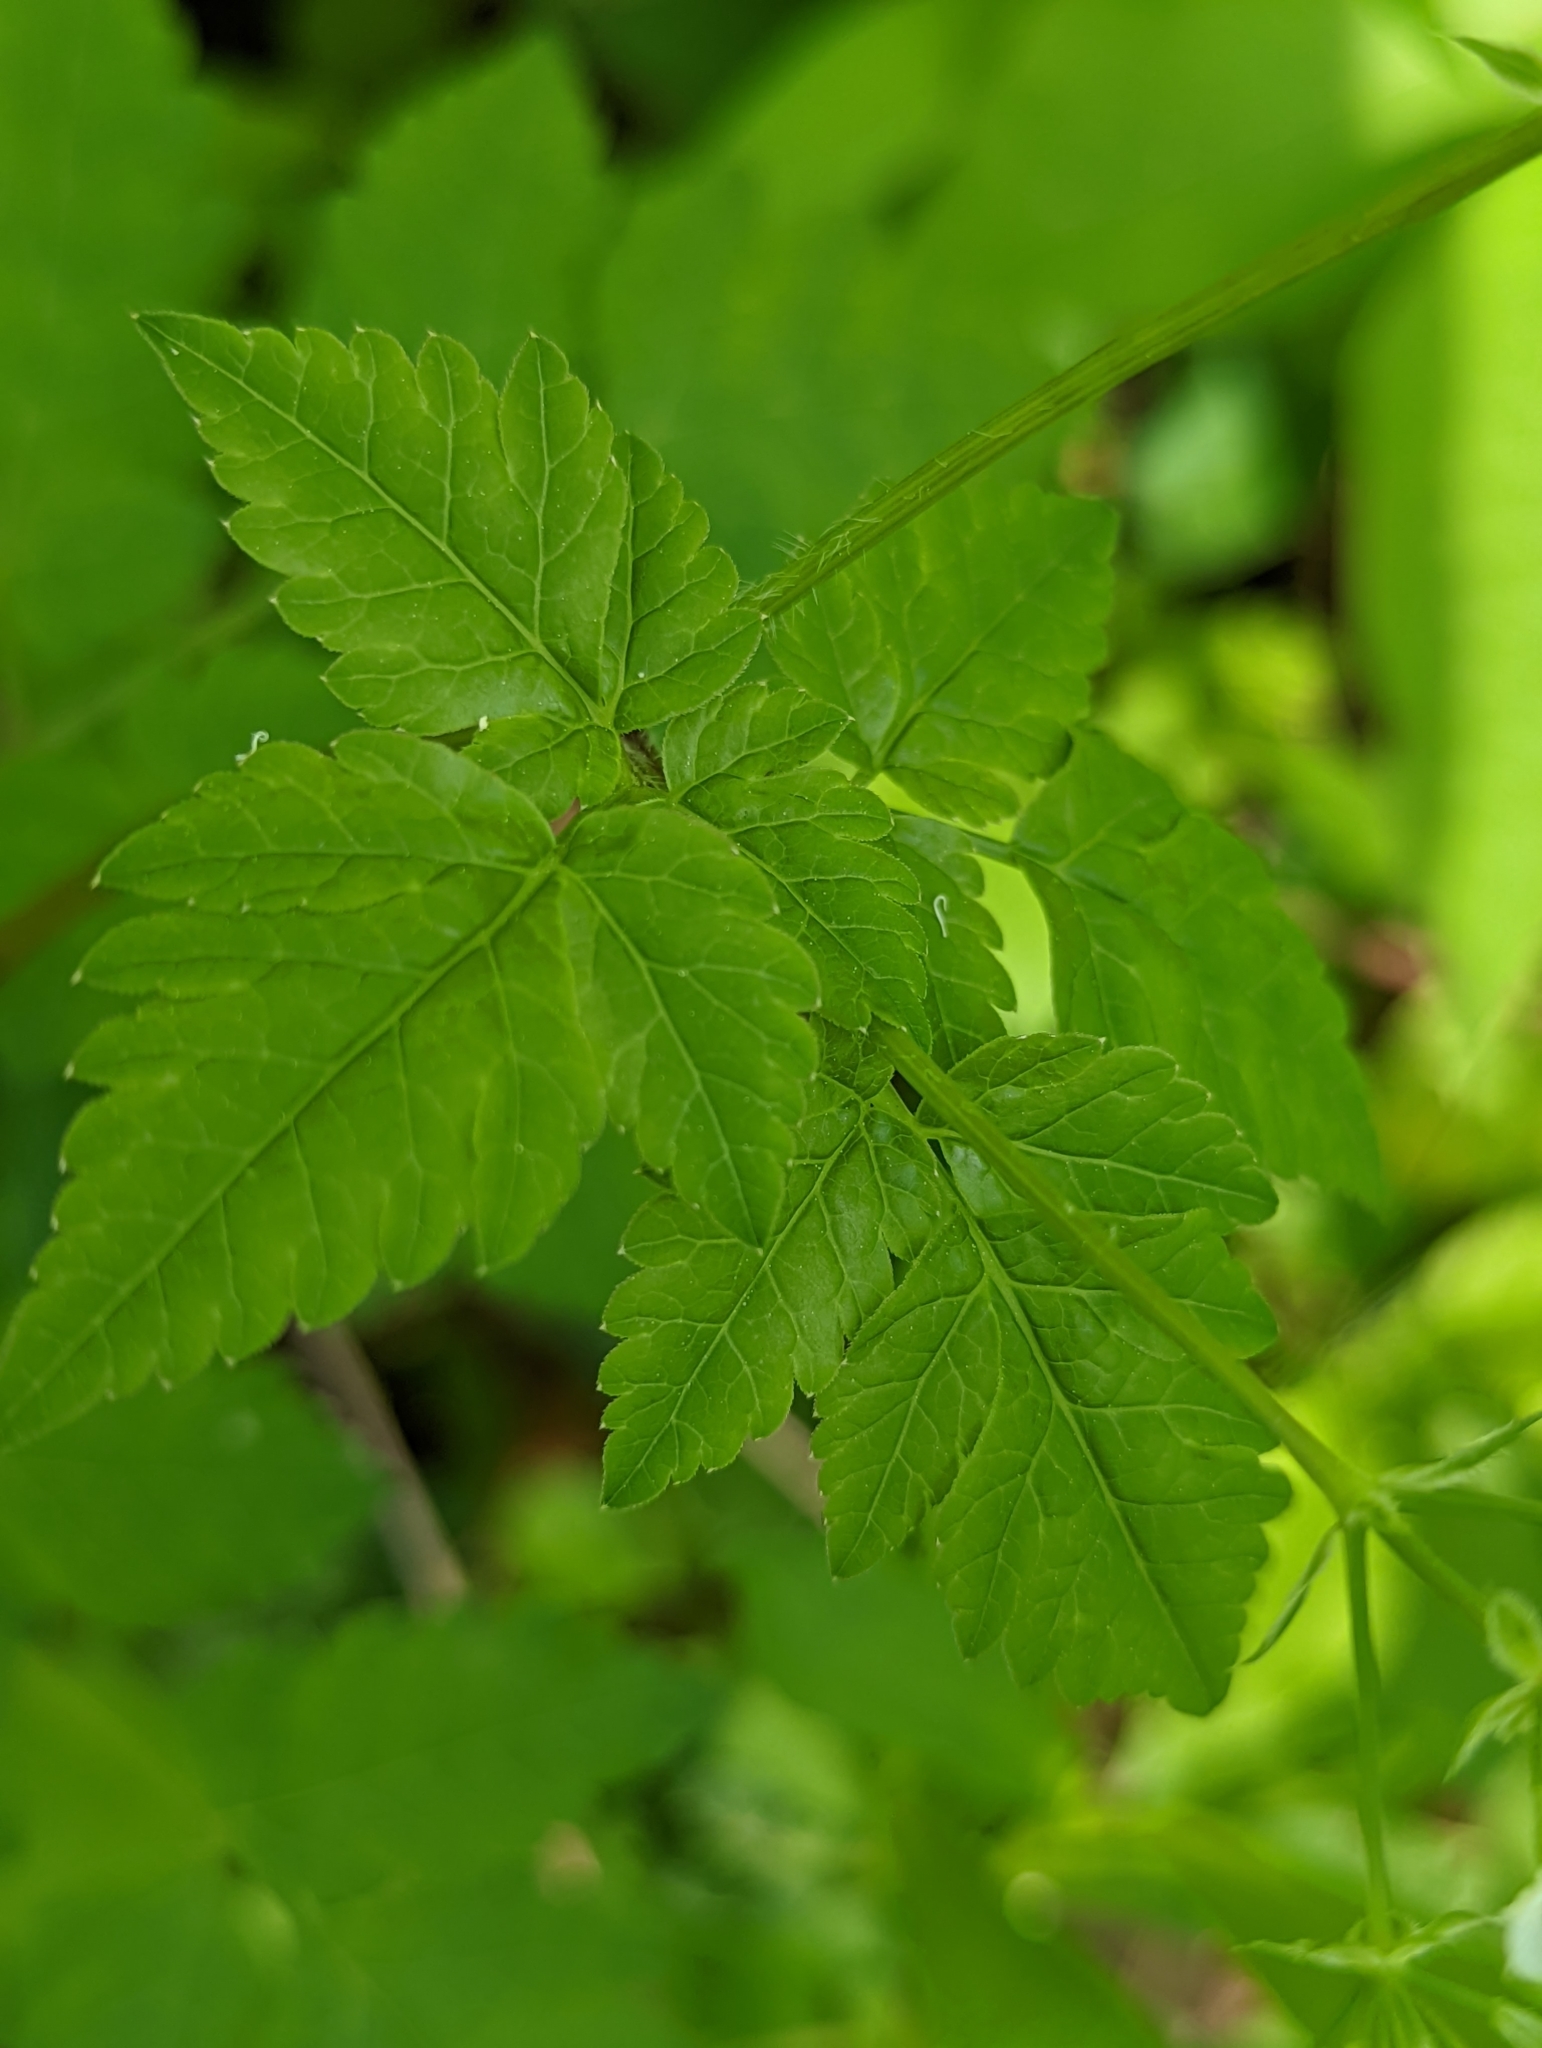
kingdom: Plantae
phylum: Tracheophyta
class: Magnoliopsida
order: Apiales
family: Apiaceae
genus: Osmorhiza
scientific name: Osmorhiza longistylis
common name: Smooth sweet cicely
